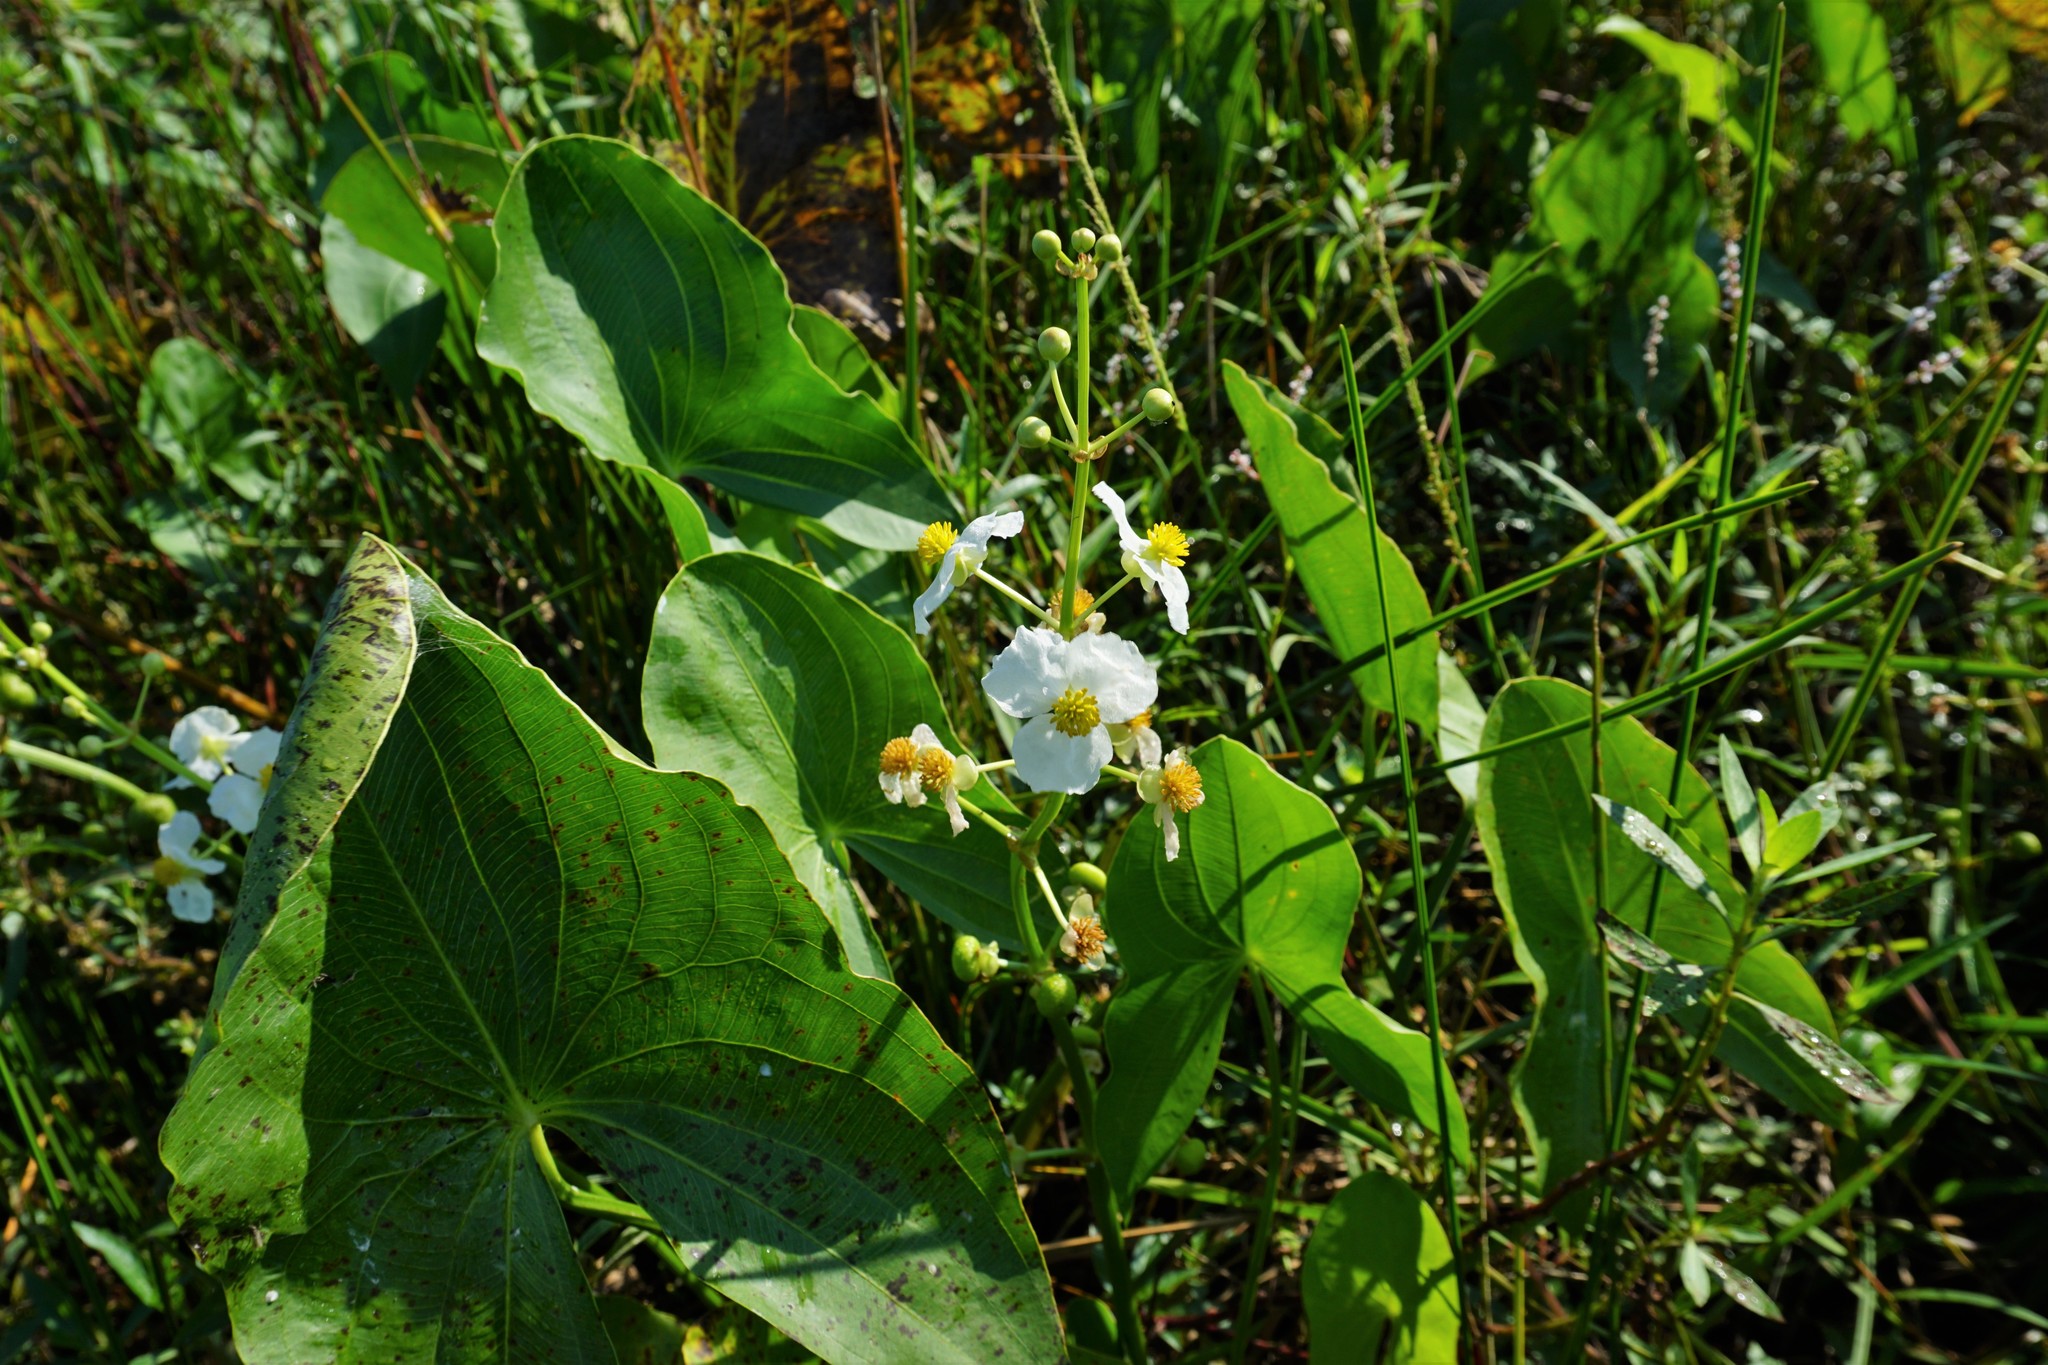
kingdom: Plantae
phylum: Tracheophyta
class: Liliopsida
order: Alismatales
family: Alismataceae
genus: Sagittaria
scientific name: Sagittaria latifolia
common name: Duck-potato
